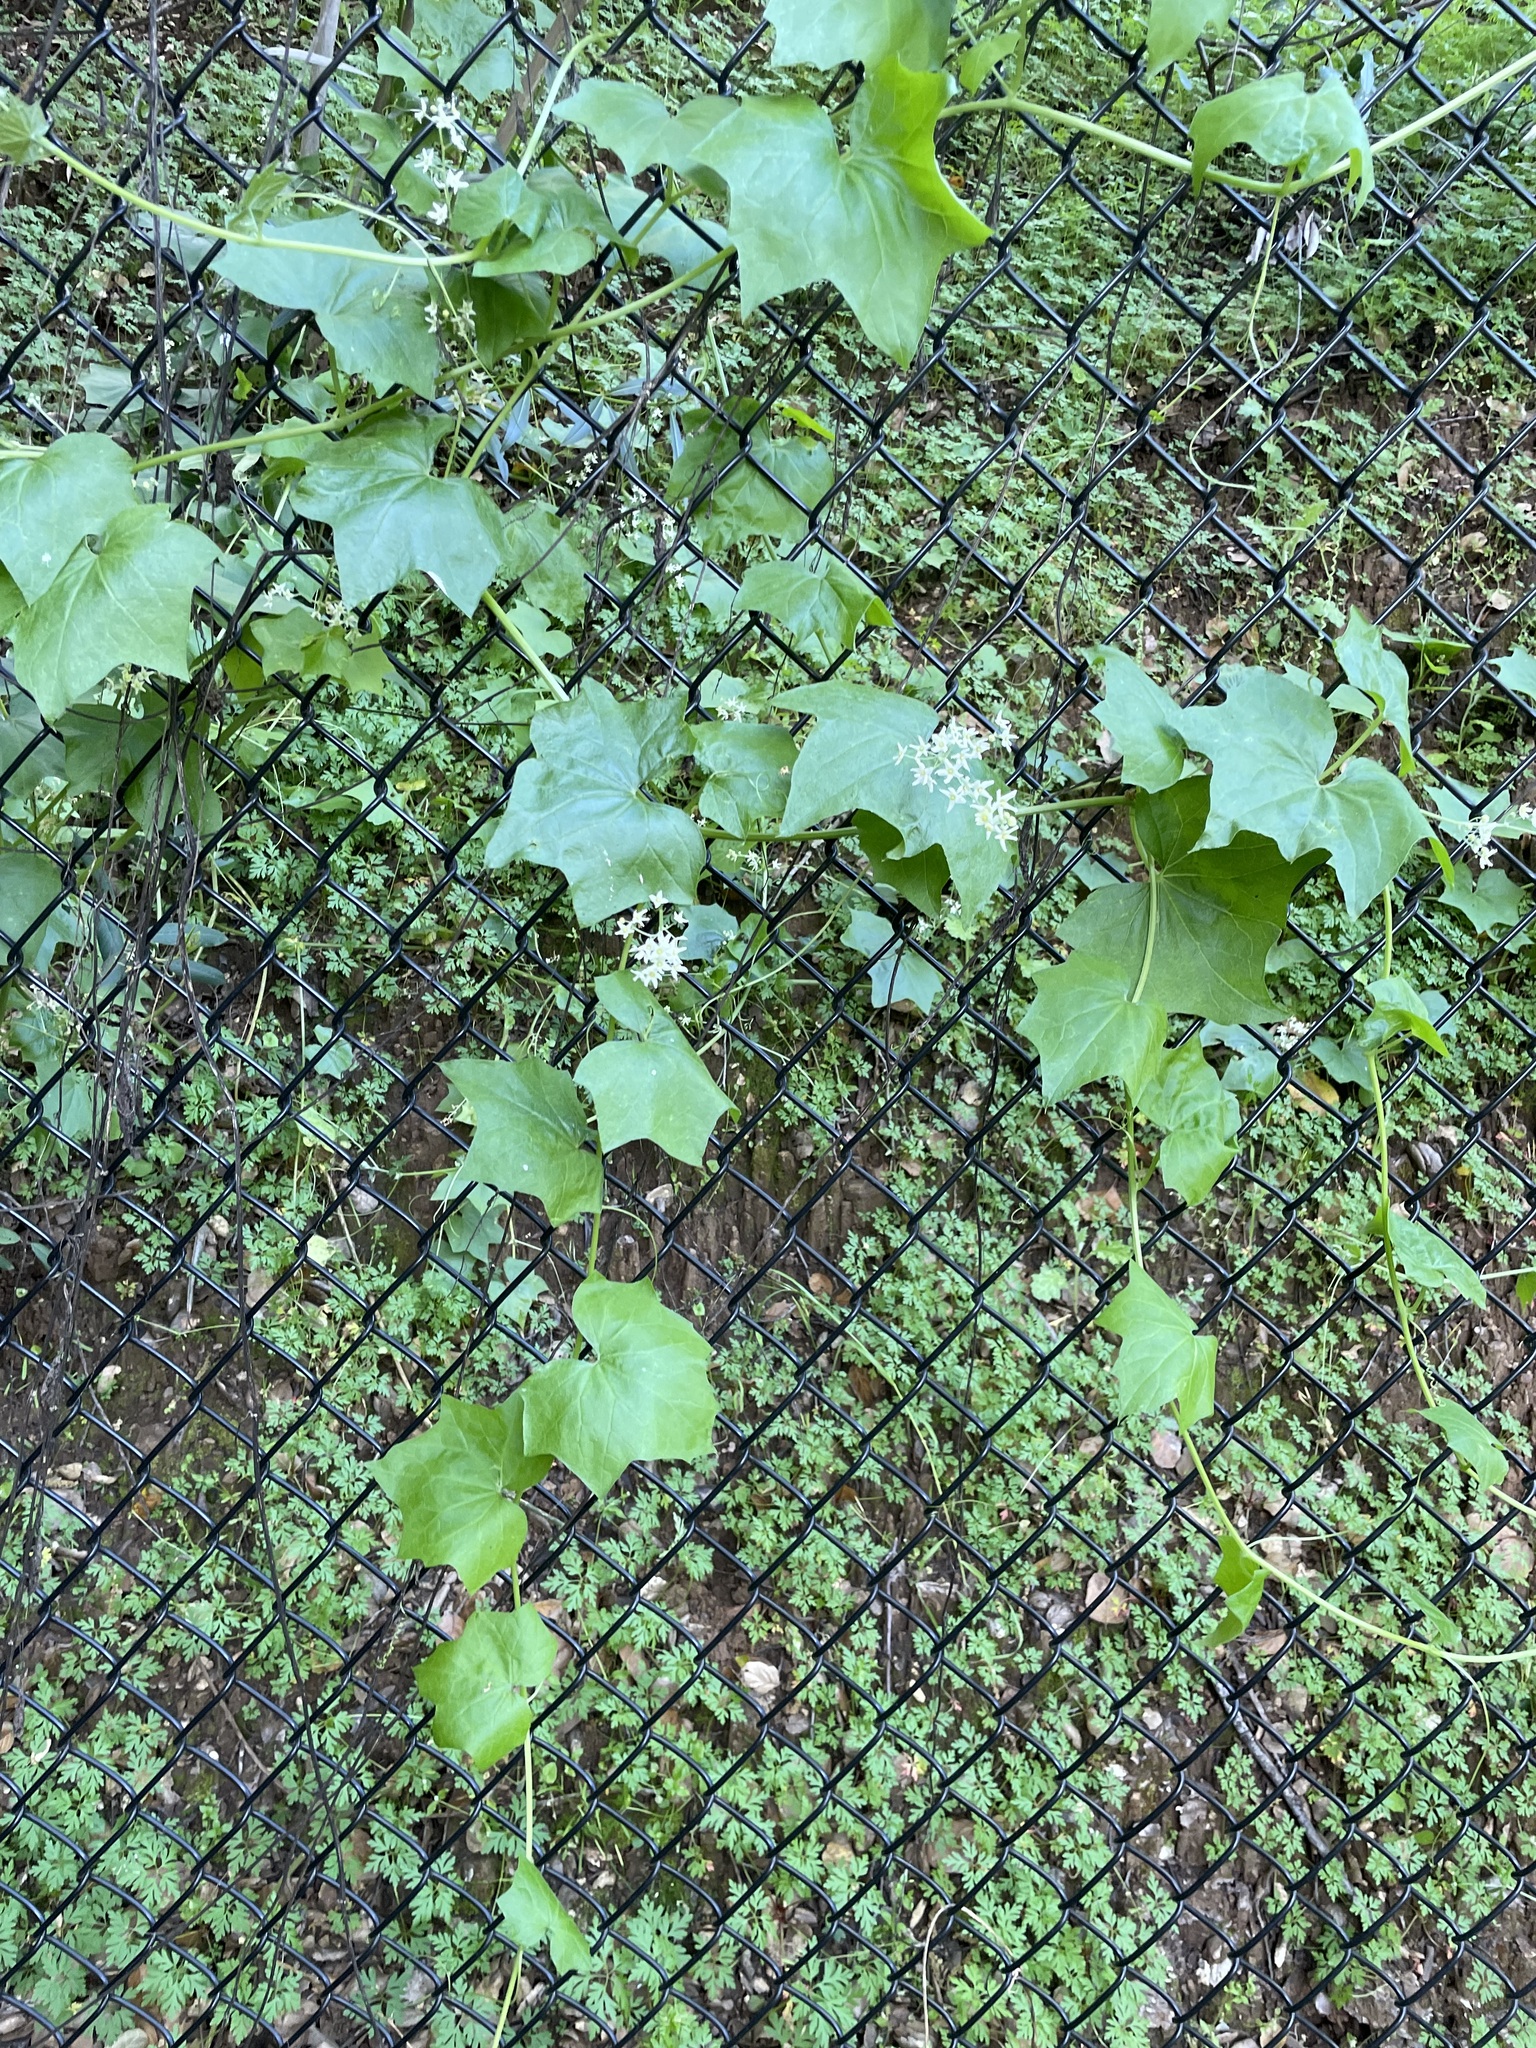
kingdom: Plantae
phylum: Tracheophyta
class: Magnoliopsida
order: Cucurbitales
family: Cucurbitaceae
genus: Marah
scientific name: Marah fabacea
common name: California manroot
